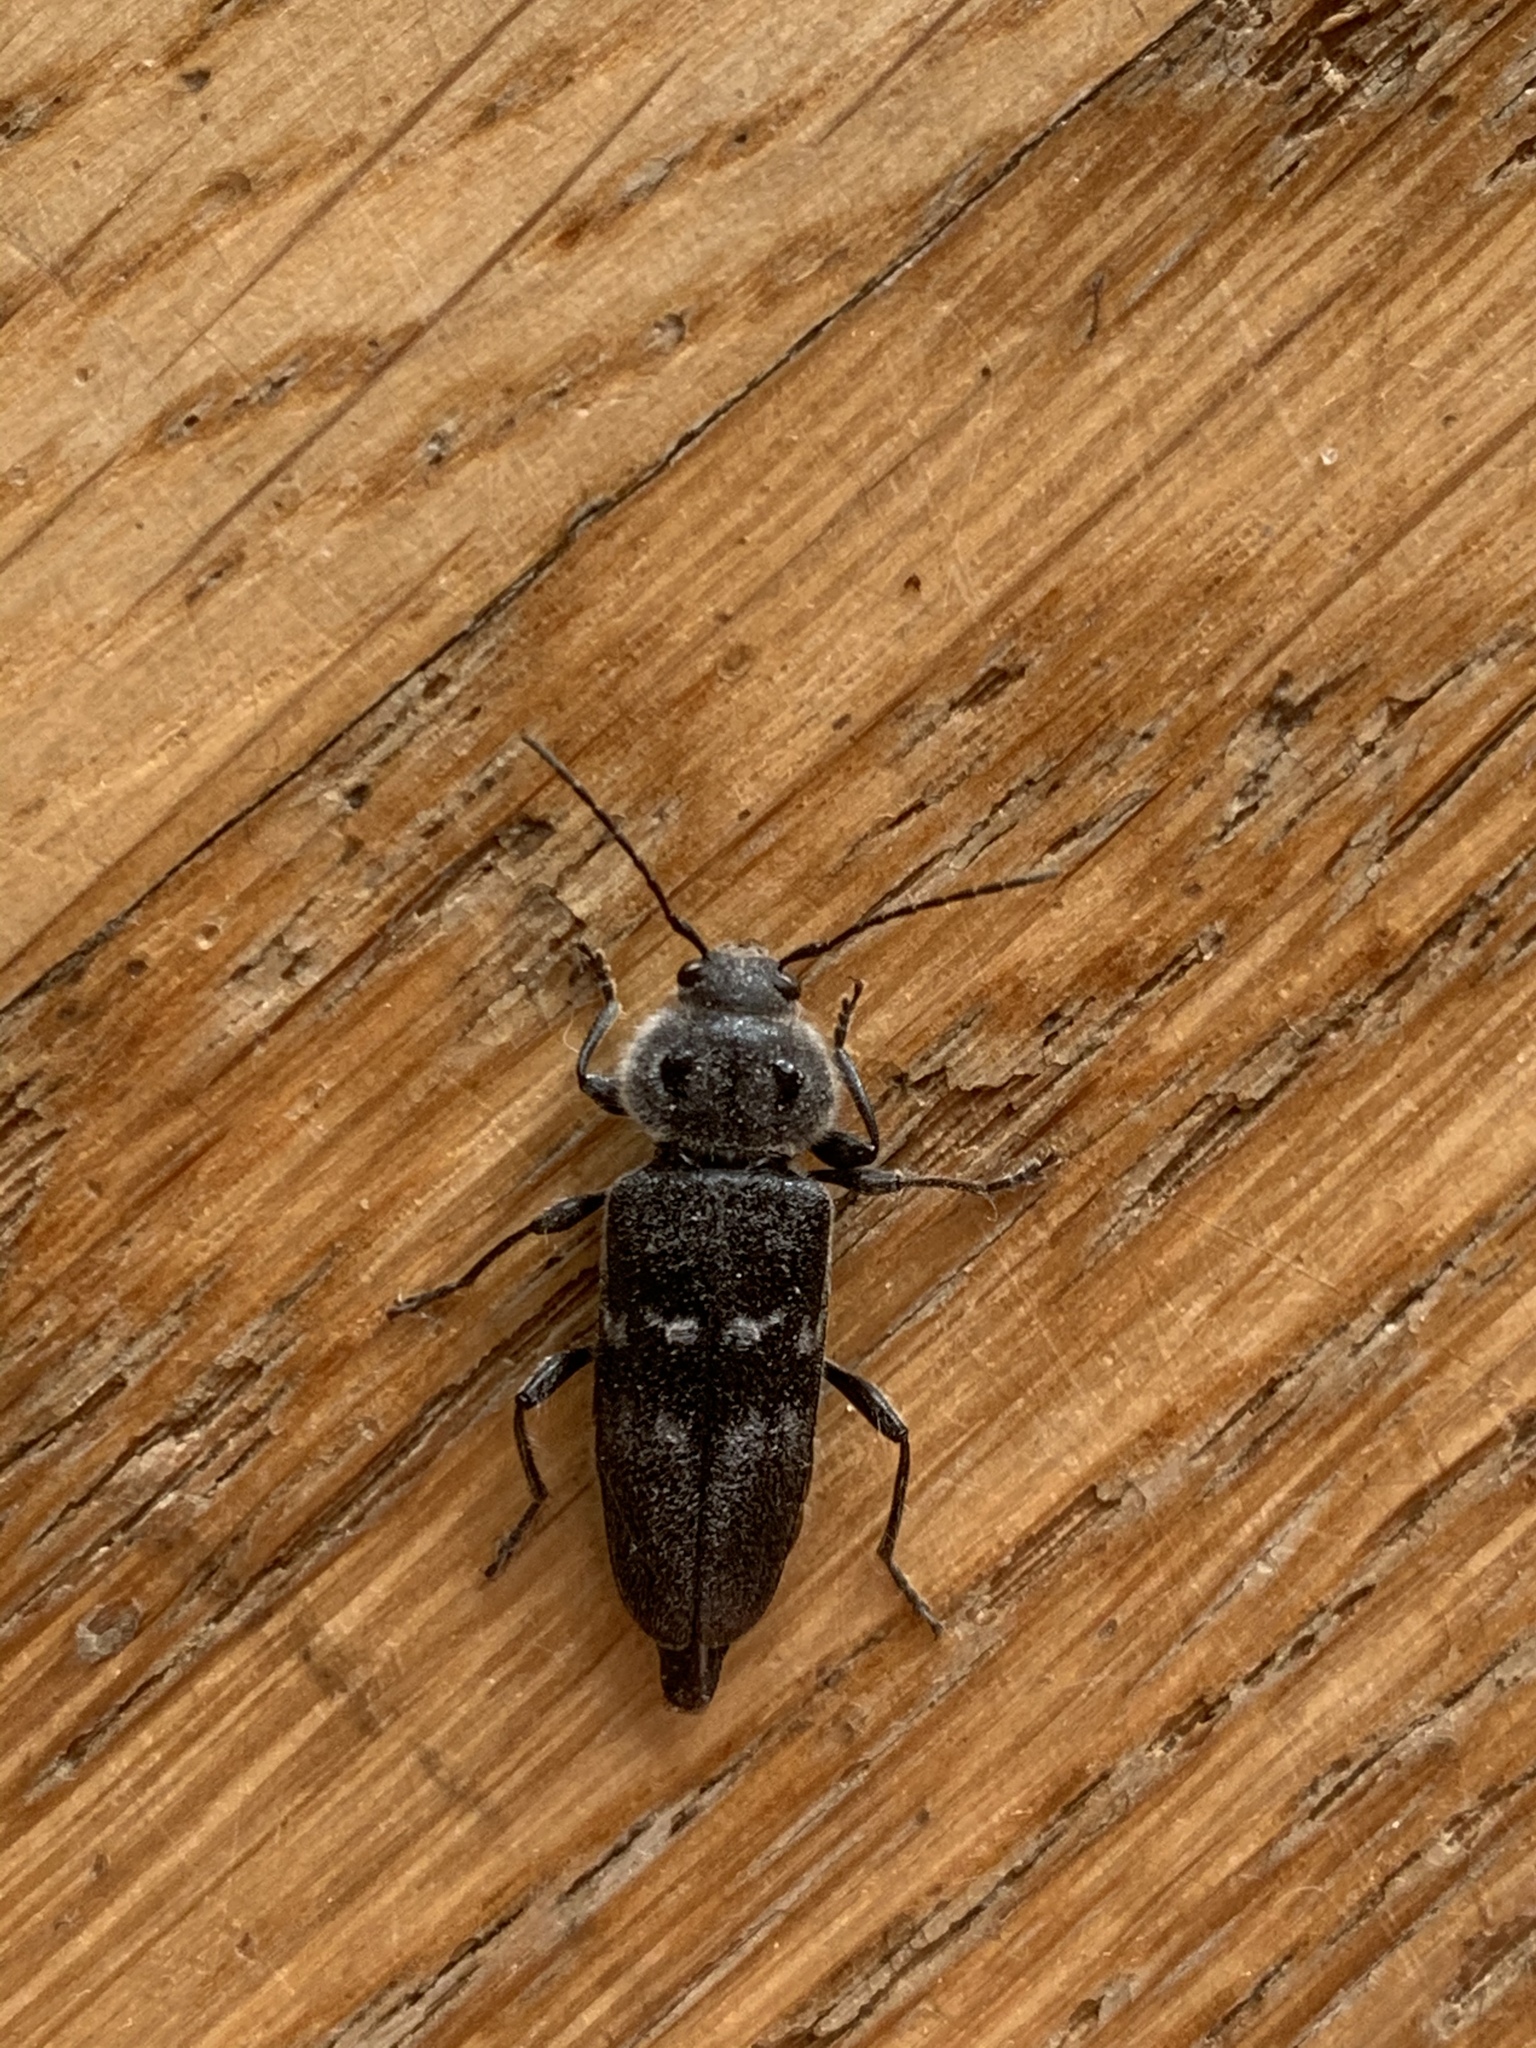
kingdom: Animalia
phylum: Arthropoda
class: Insecta
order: Coleoptera
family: Cerambycidae
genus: Hylotrupes
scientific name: Hylotrupes bajulus
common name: Old house borer
